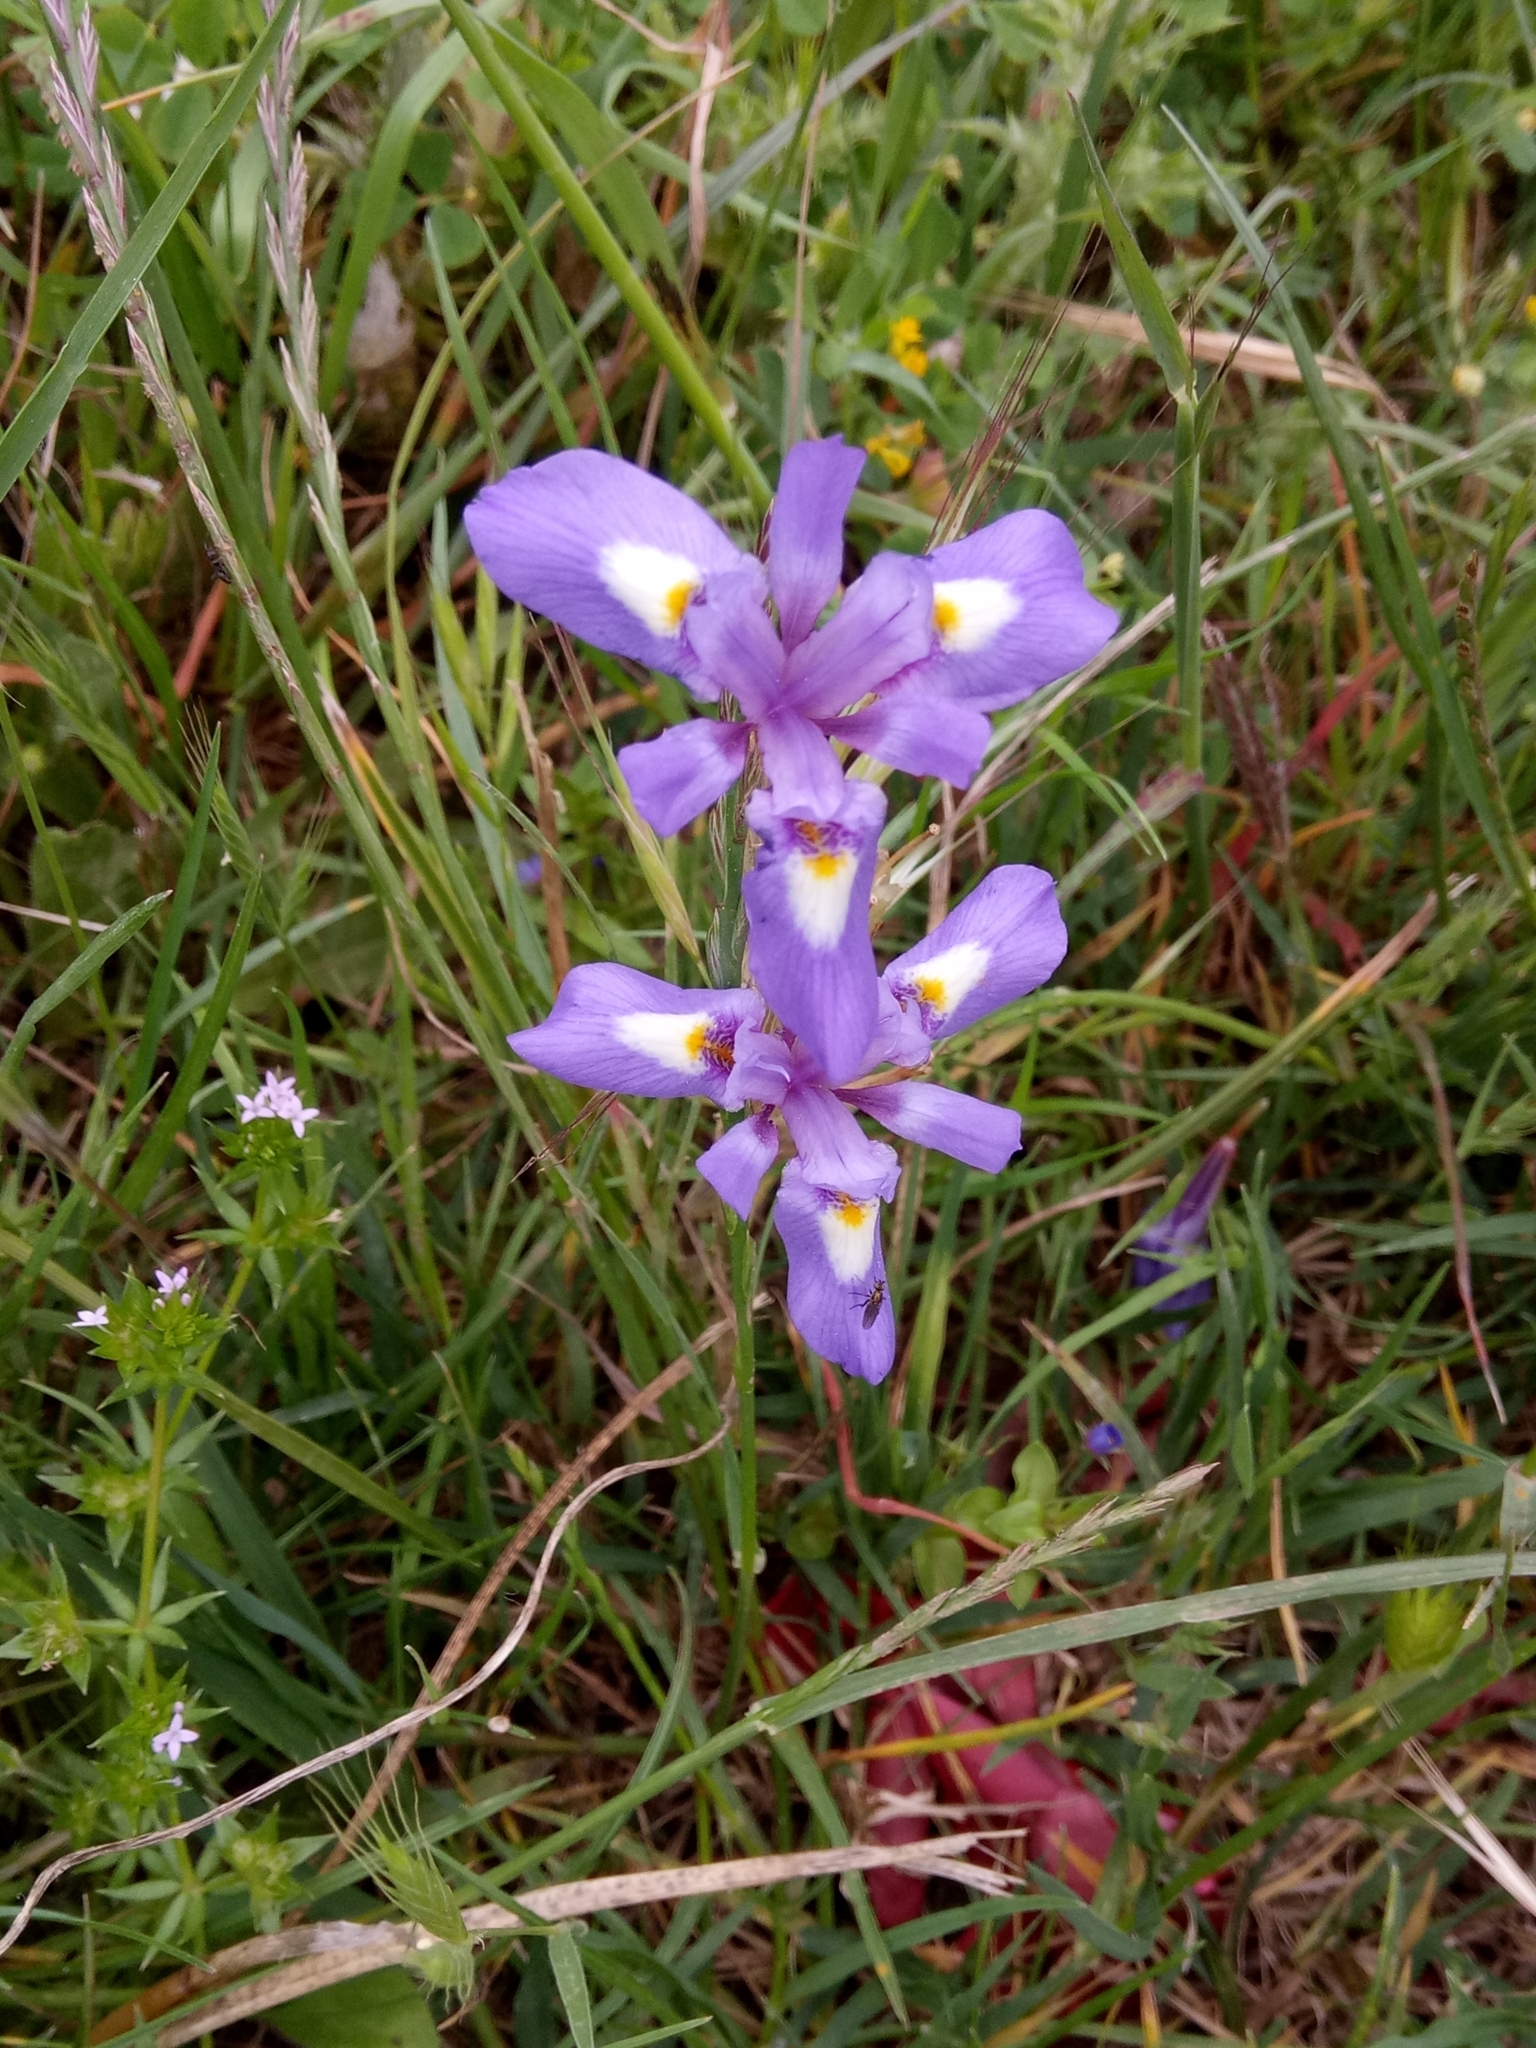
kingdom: Plantae
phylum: Tracheophyta
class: Liliopsida
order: Asparagales
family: Iridaceae
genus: Moraea
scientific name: Moraea sisyrinchium
